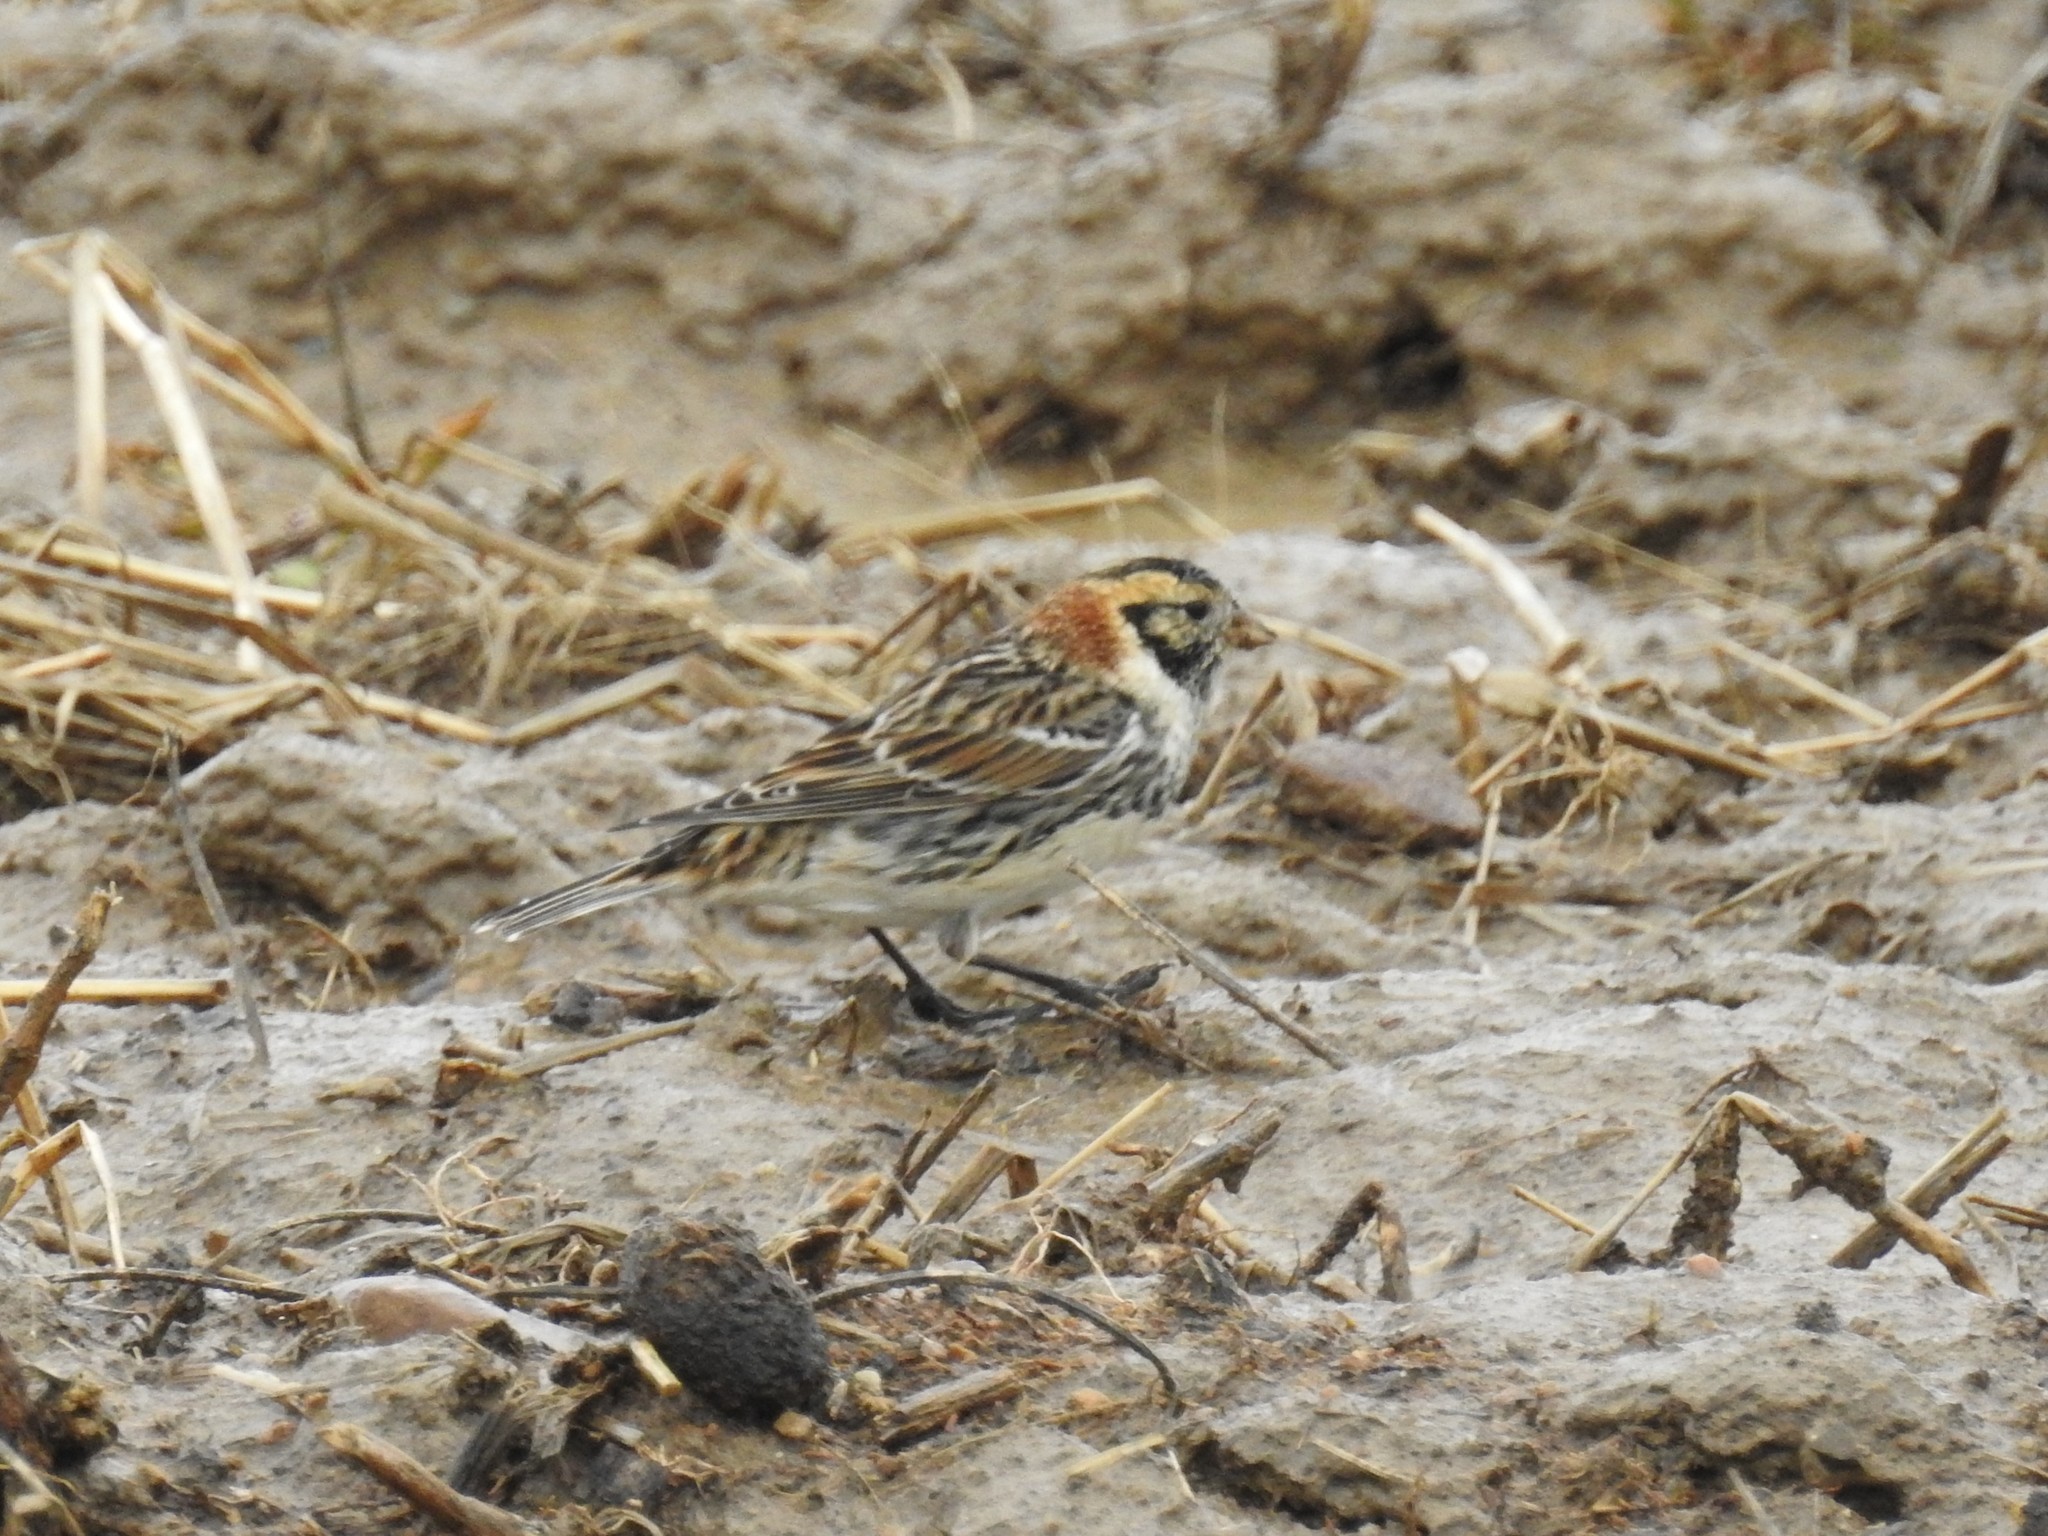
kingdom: Animalia
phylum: Chordata
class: Aves
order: Passeriformes
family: Calcariidae
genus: Calcarius
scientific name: Calcarius lapponicus
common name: Lapland longspur
